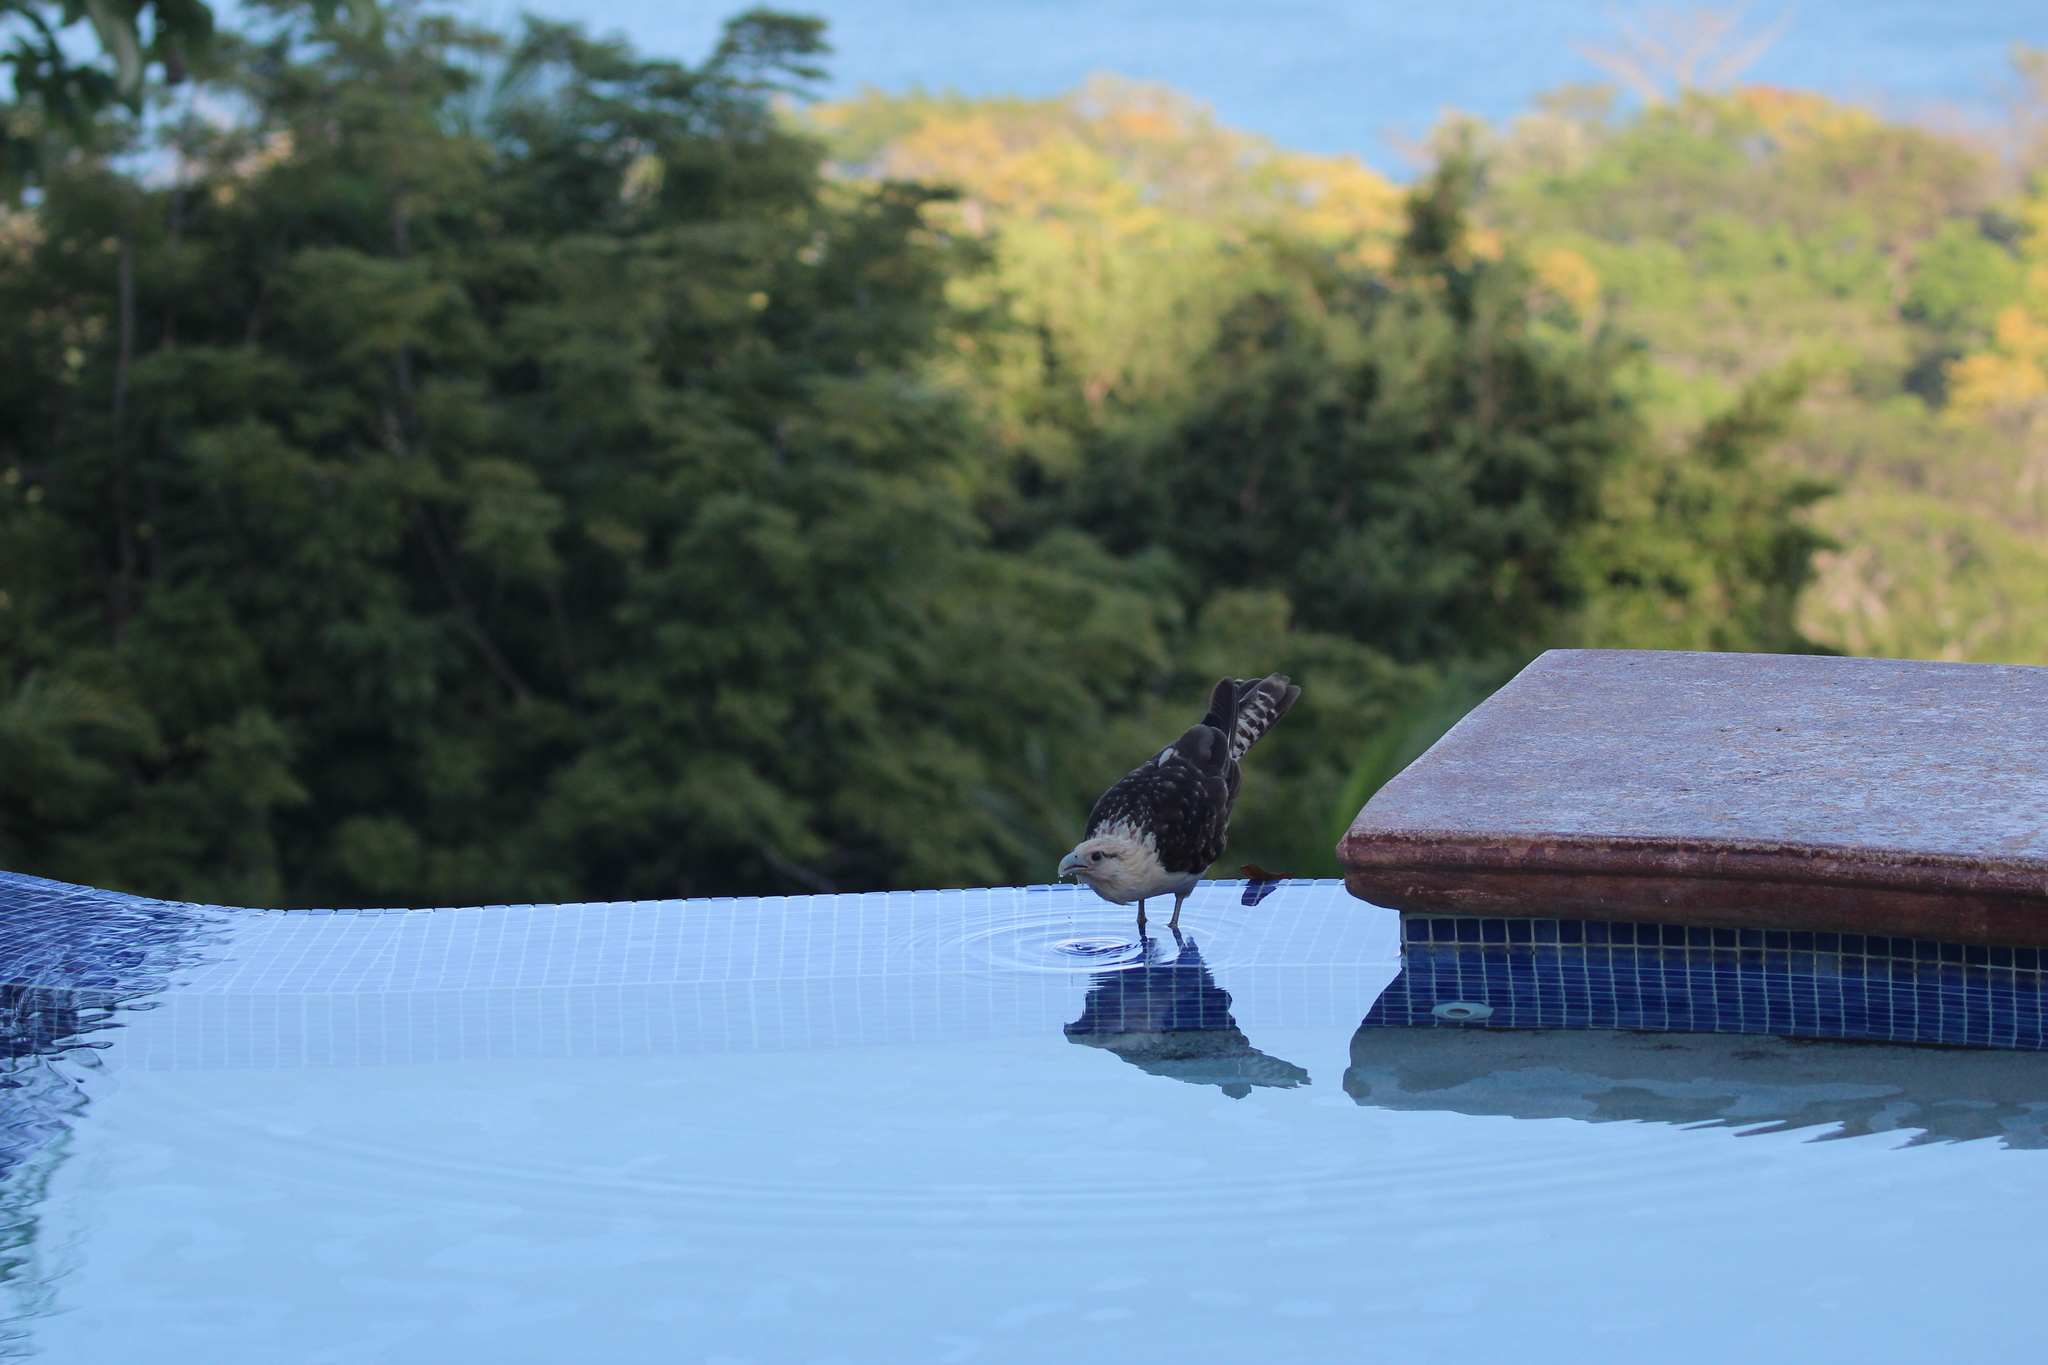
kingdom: Animalia
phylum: Chordata
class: Aves
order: Falconiformes
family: Falconidae
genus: Daptrius
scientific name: Daptrius
